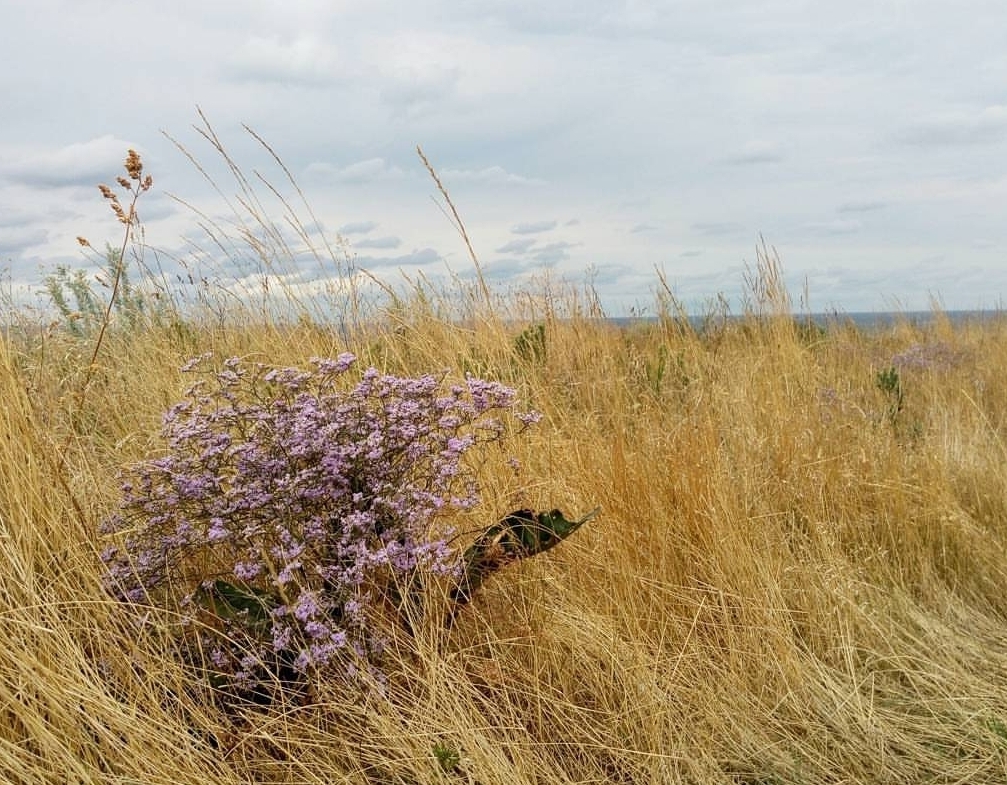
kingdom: Plantae
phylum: Tracheophyta
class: Magnoliopsida
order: Caryophyllales
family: Plumbaginaceae
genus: Limonium
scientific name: Limonium platyphyllum
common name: Florist's sea lavender
